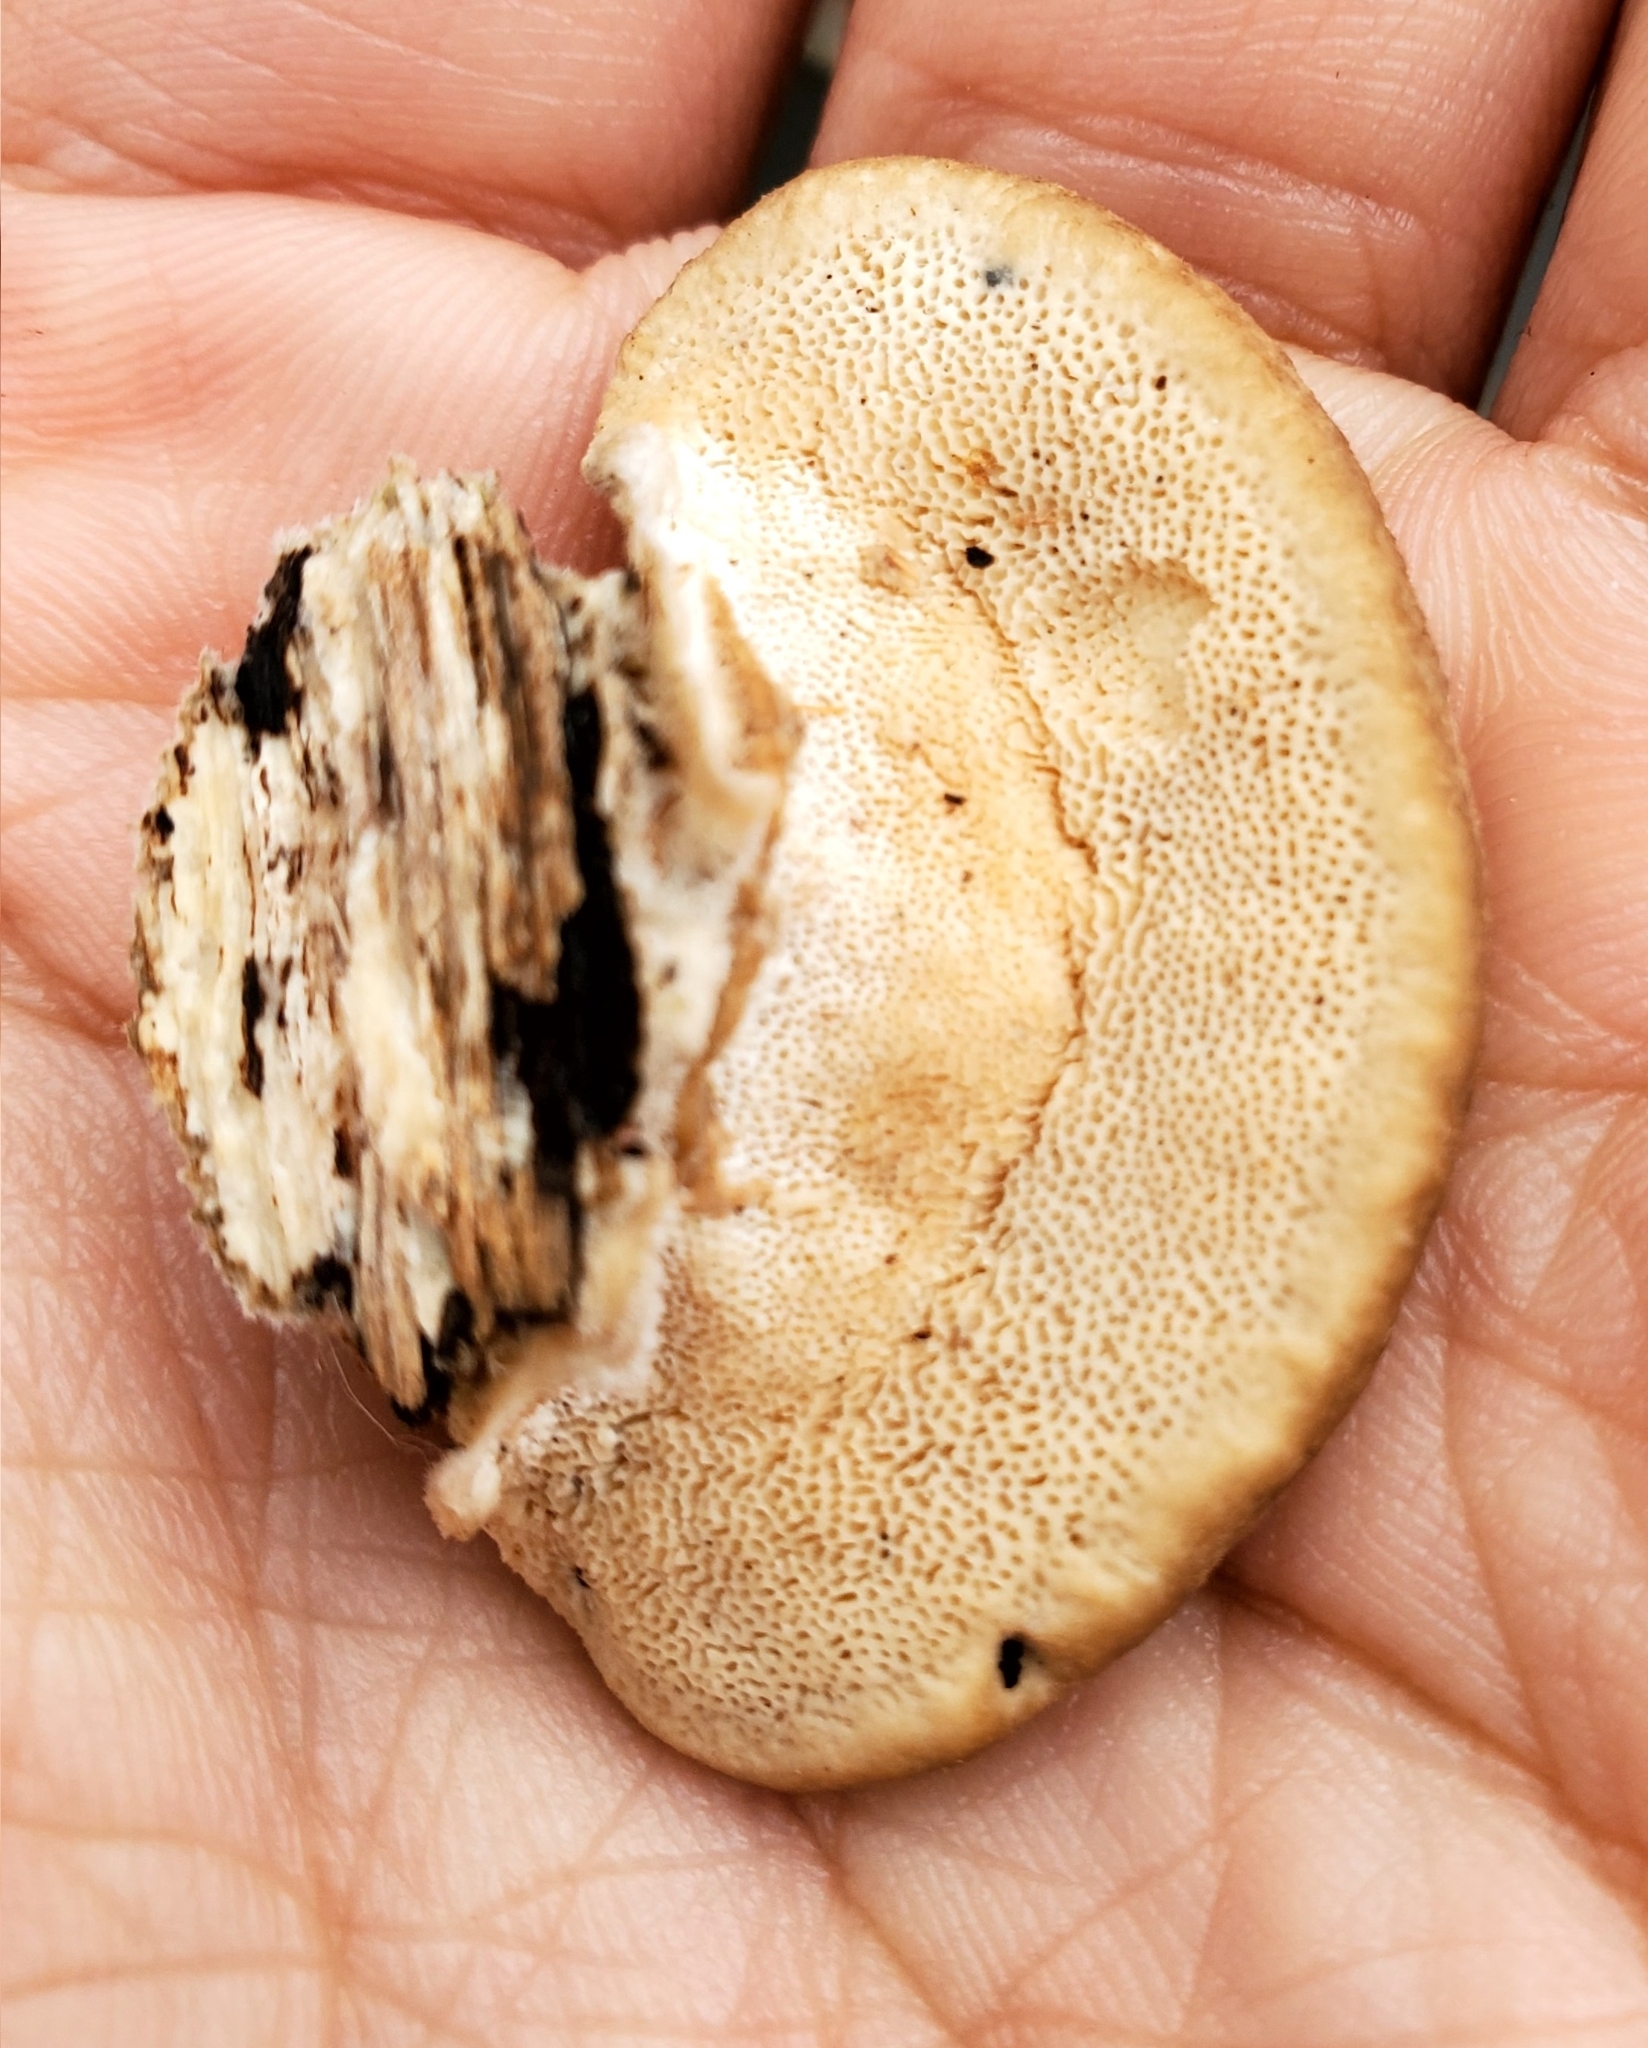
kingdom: Fungi
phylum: Basidiomycota
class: Agaricomycetes
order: Polyporales
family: Polyporaceae
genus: Trametes
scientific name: Trametes hirsuta
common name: Hairy bracket
